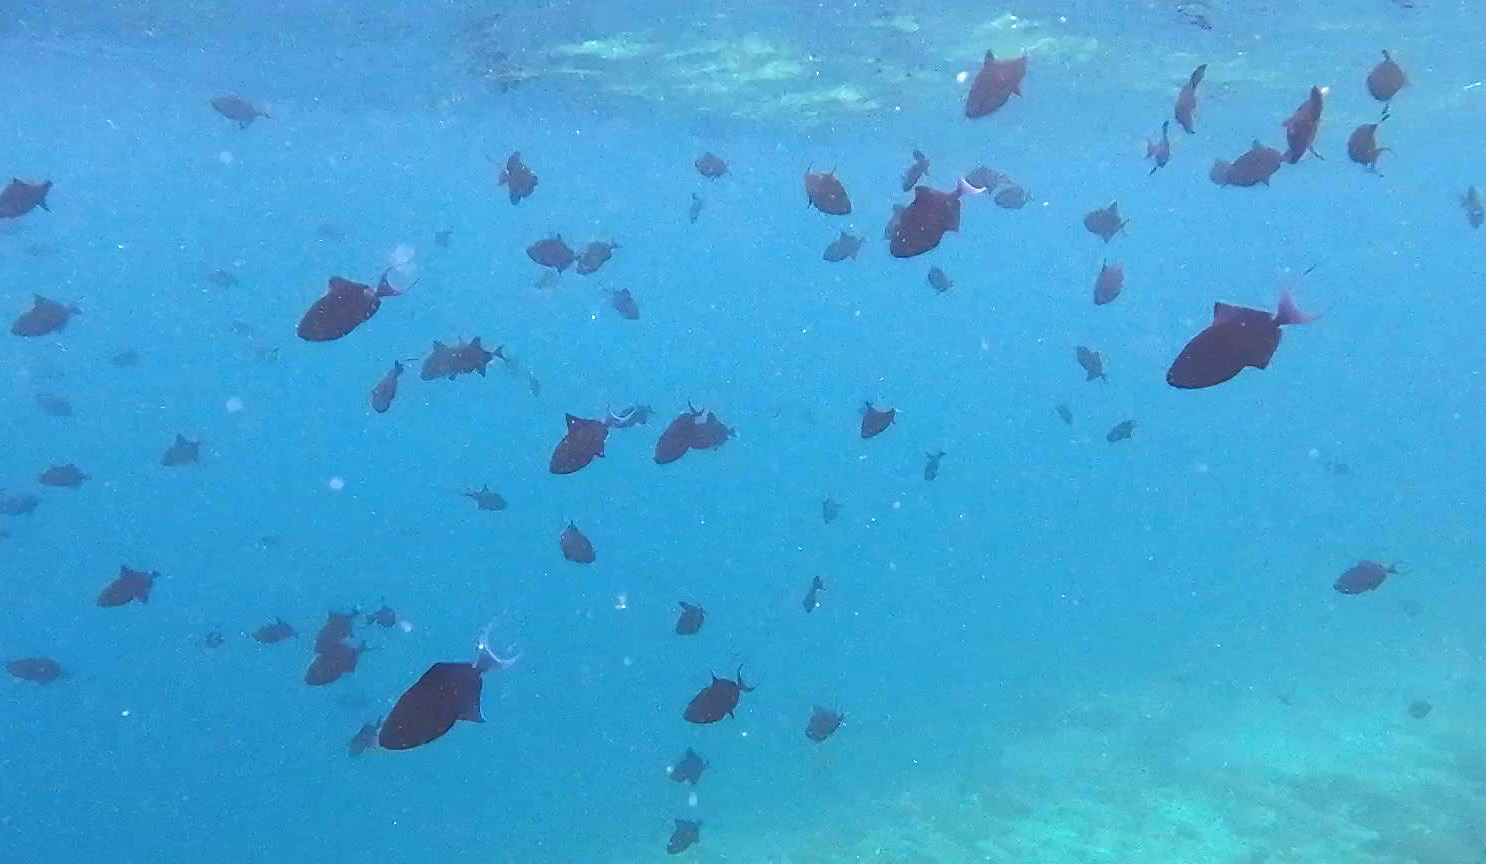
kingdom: Animalia
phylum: Chordata
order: Tetraodontiformes
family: Balistidae
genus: Odonus
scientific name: Odonus niger
